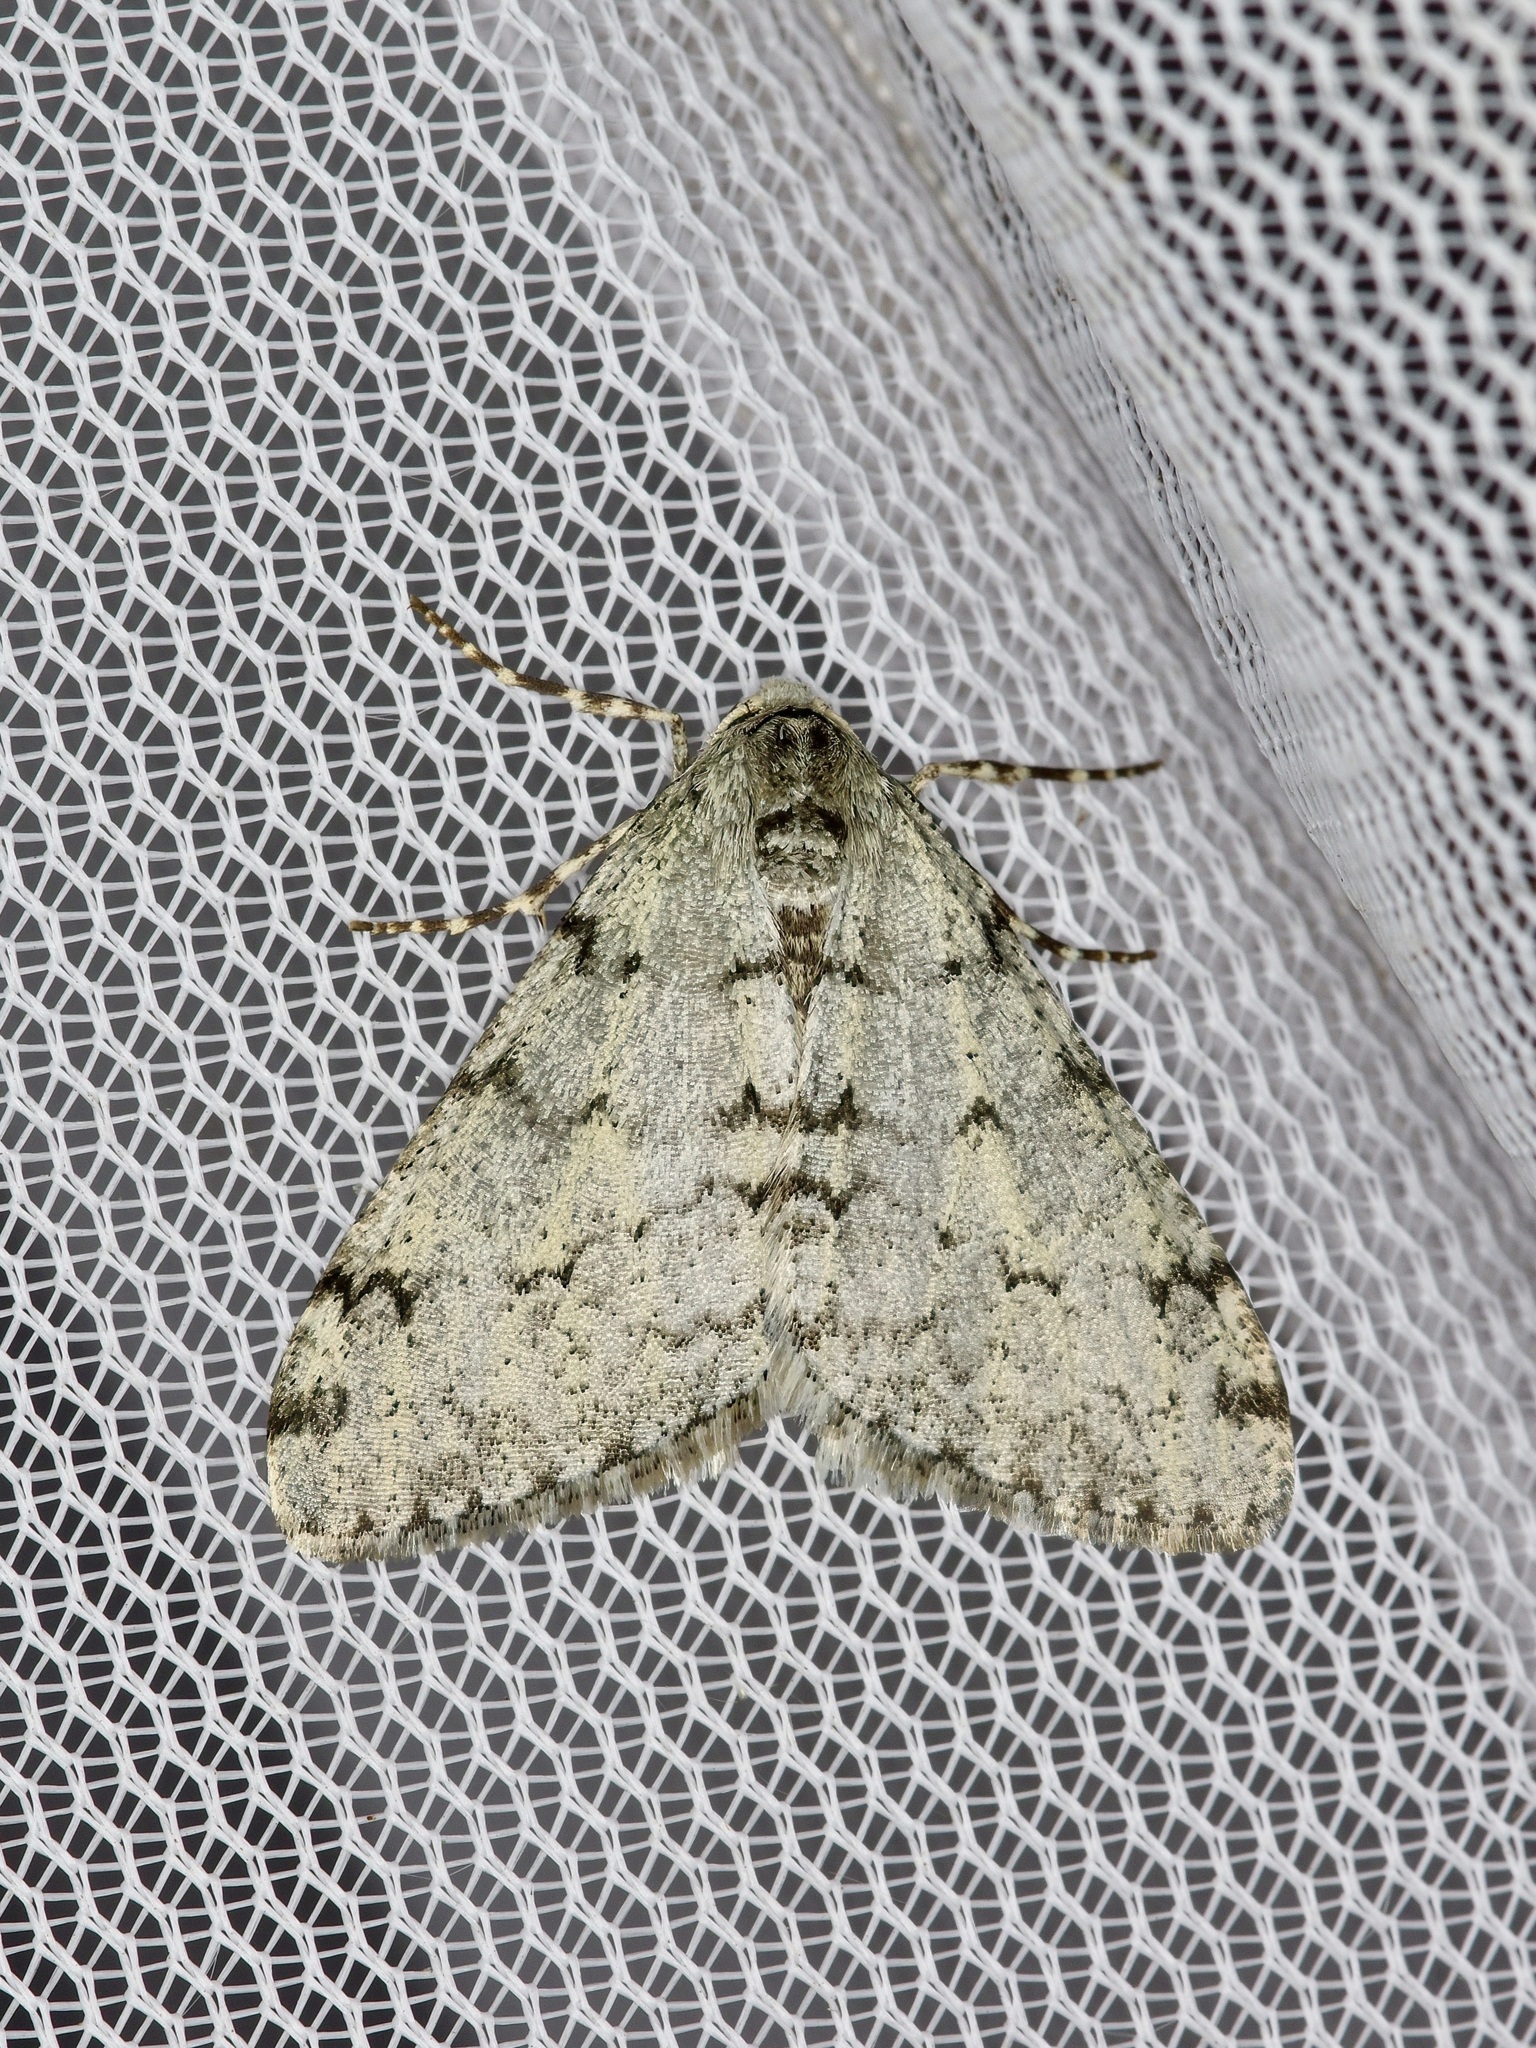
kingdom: Animalia
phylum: Arthropoda
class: Insecta
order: Lepidoptera
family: Geometridae
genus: Phigalia
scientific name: Phigalia strigataria
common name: Small phigalia
